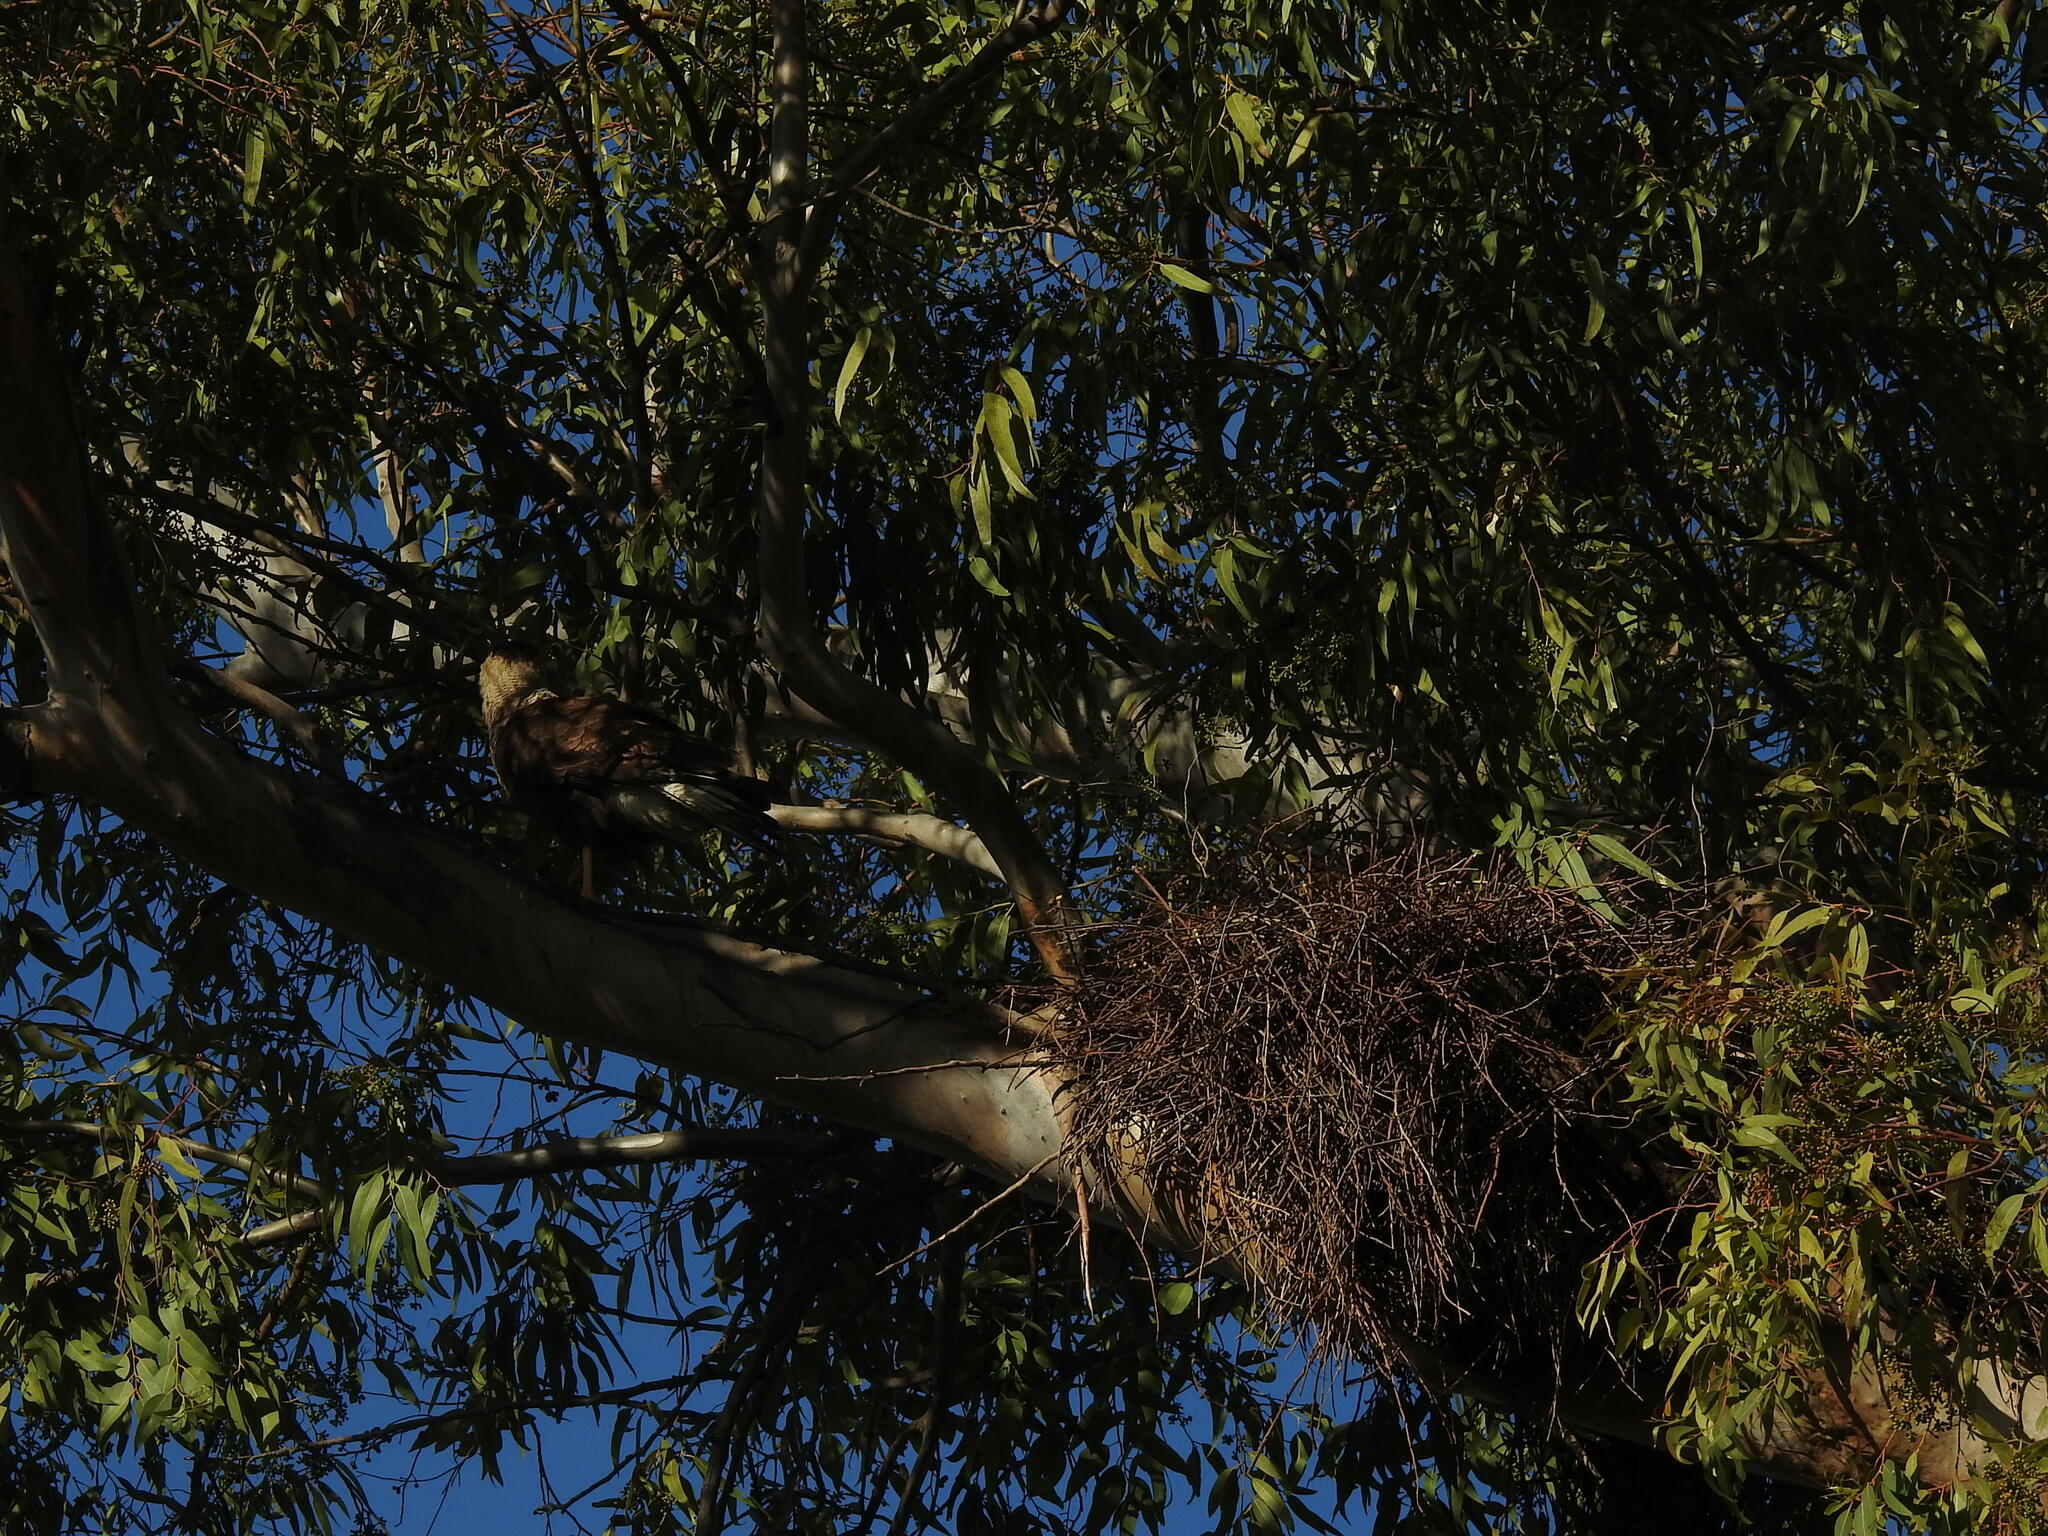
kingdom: Animalia
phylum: Chordata
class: Aves
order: Psittaciformes
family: Psittacidae
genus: Myiopsitta
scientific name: Myiopsitta monachus
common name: Monk parakeet
